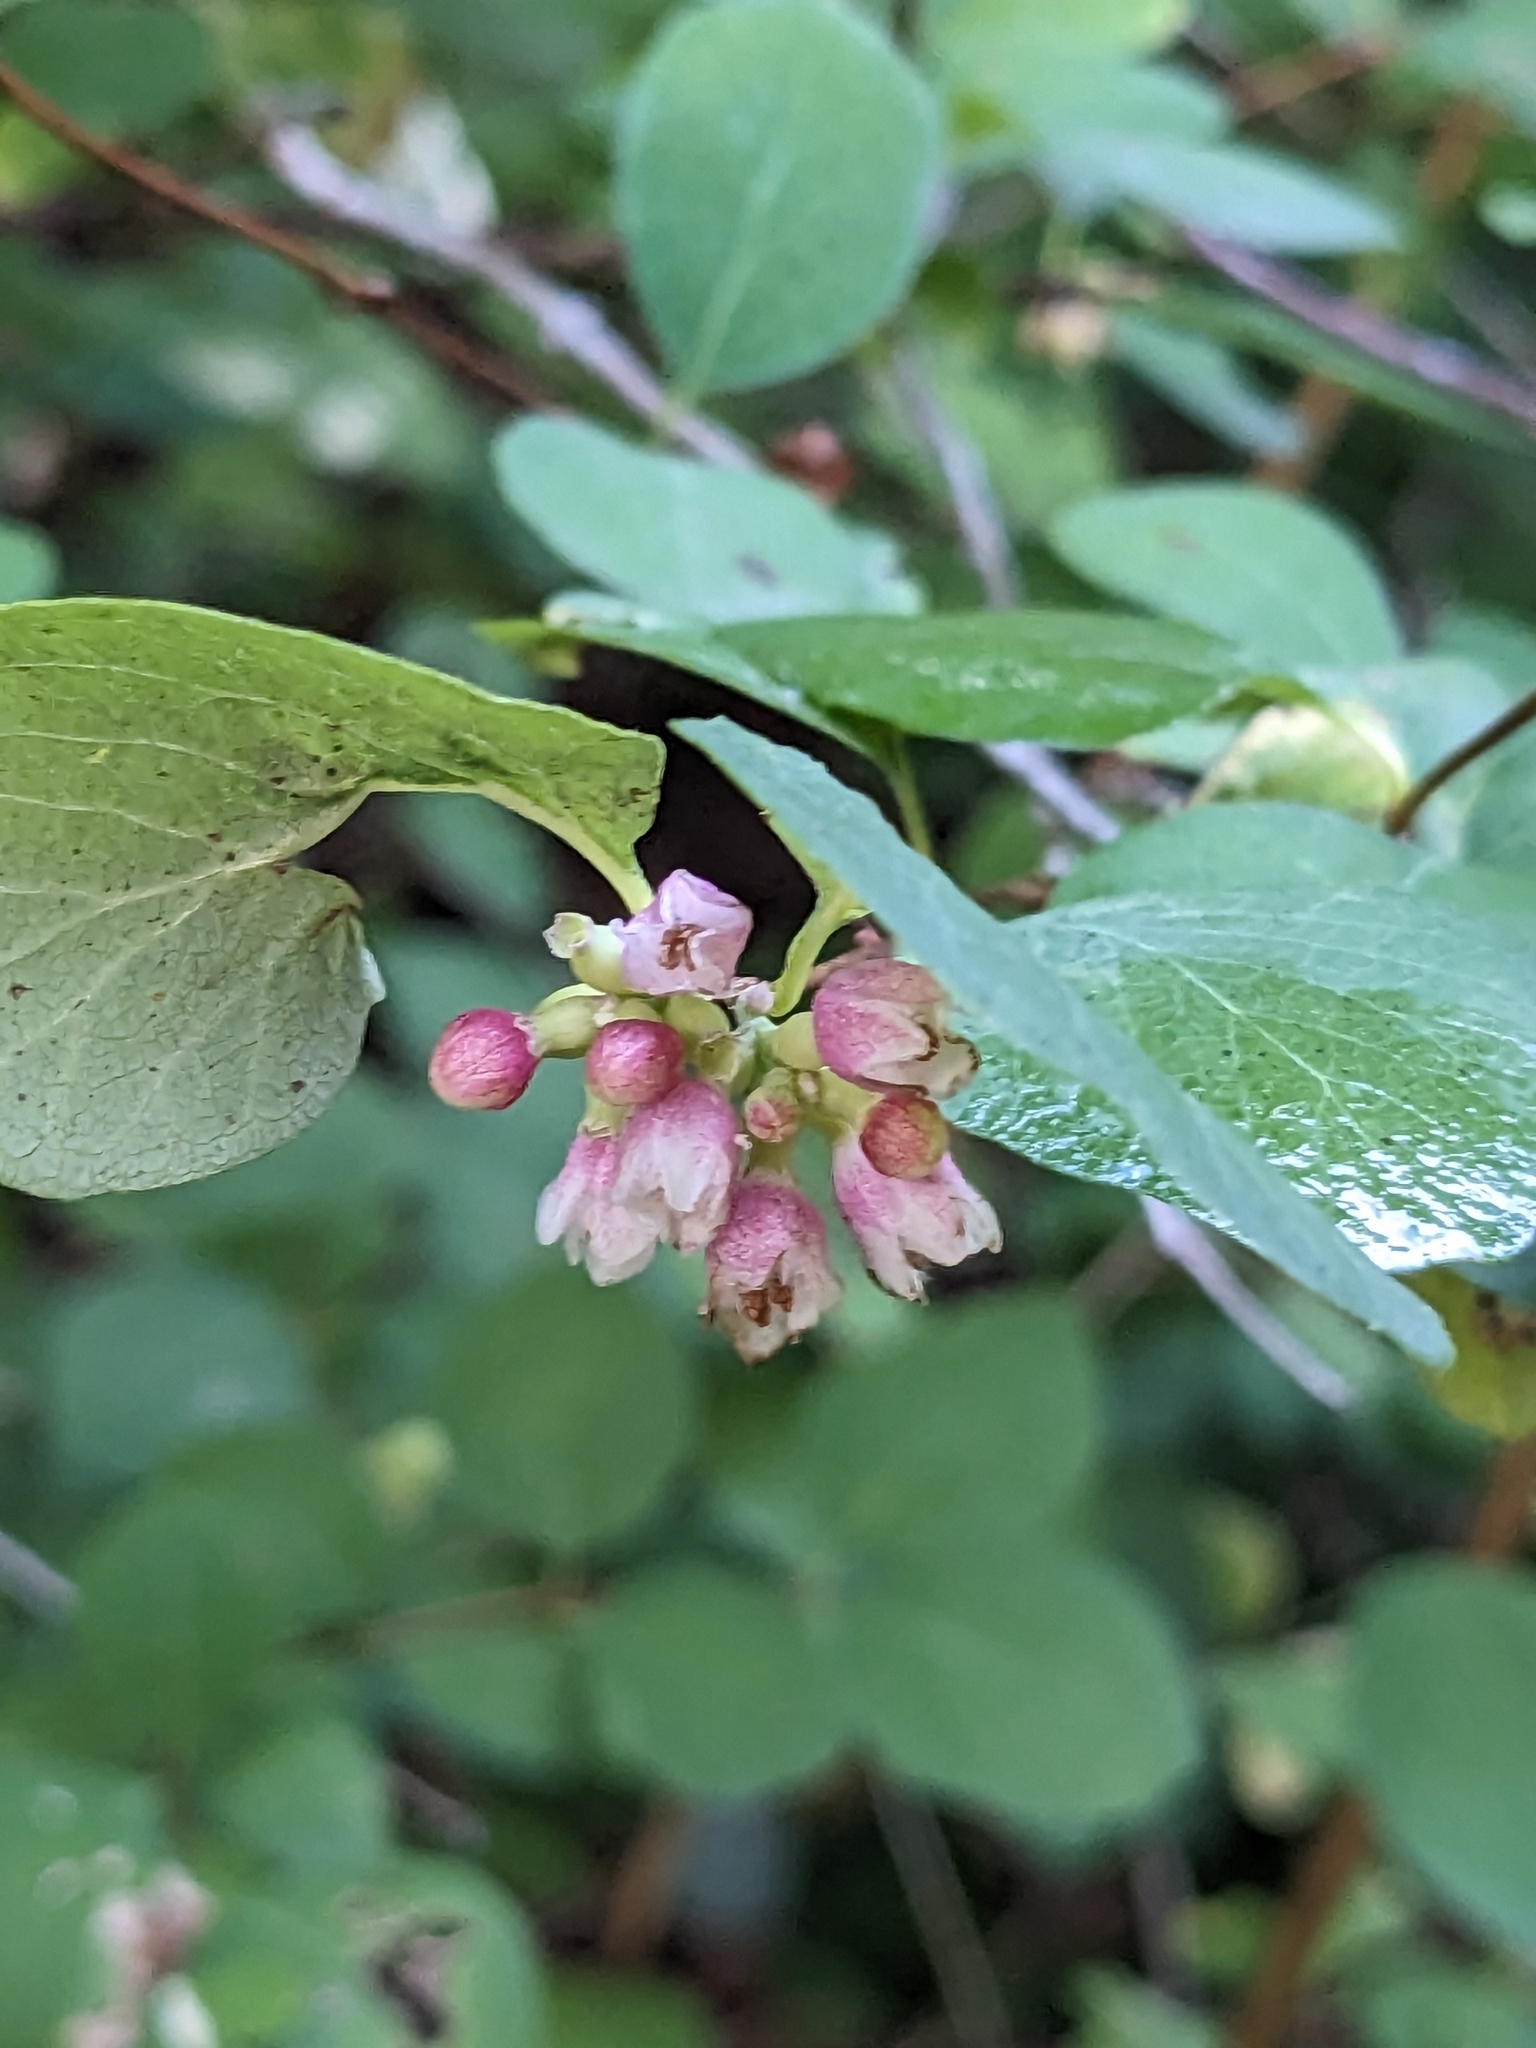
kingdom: Plantae
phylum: Tracheophyta
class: Magnoliopsida
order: Dipsacales
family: Caprifoliaceae
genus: Symphoricarpos
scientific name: Symphoricarpos albus
